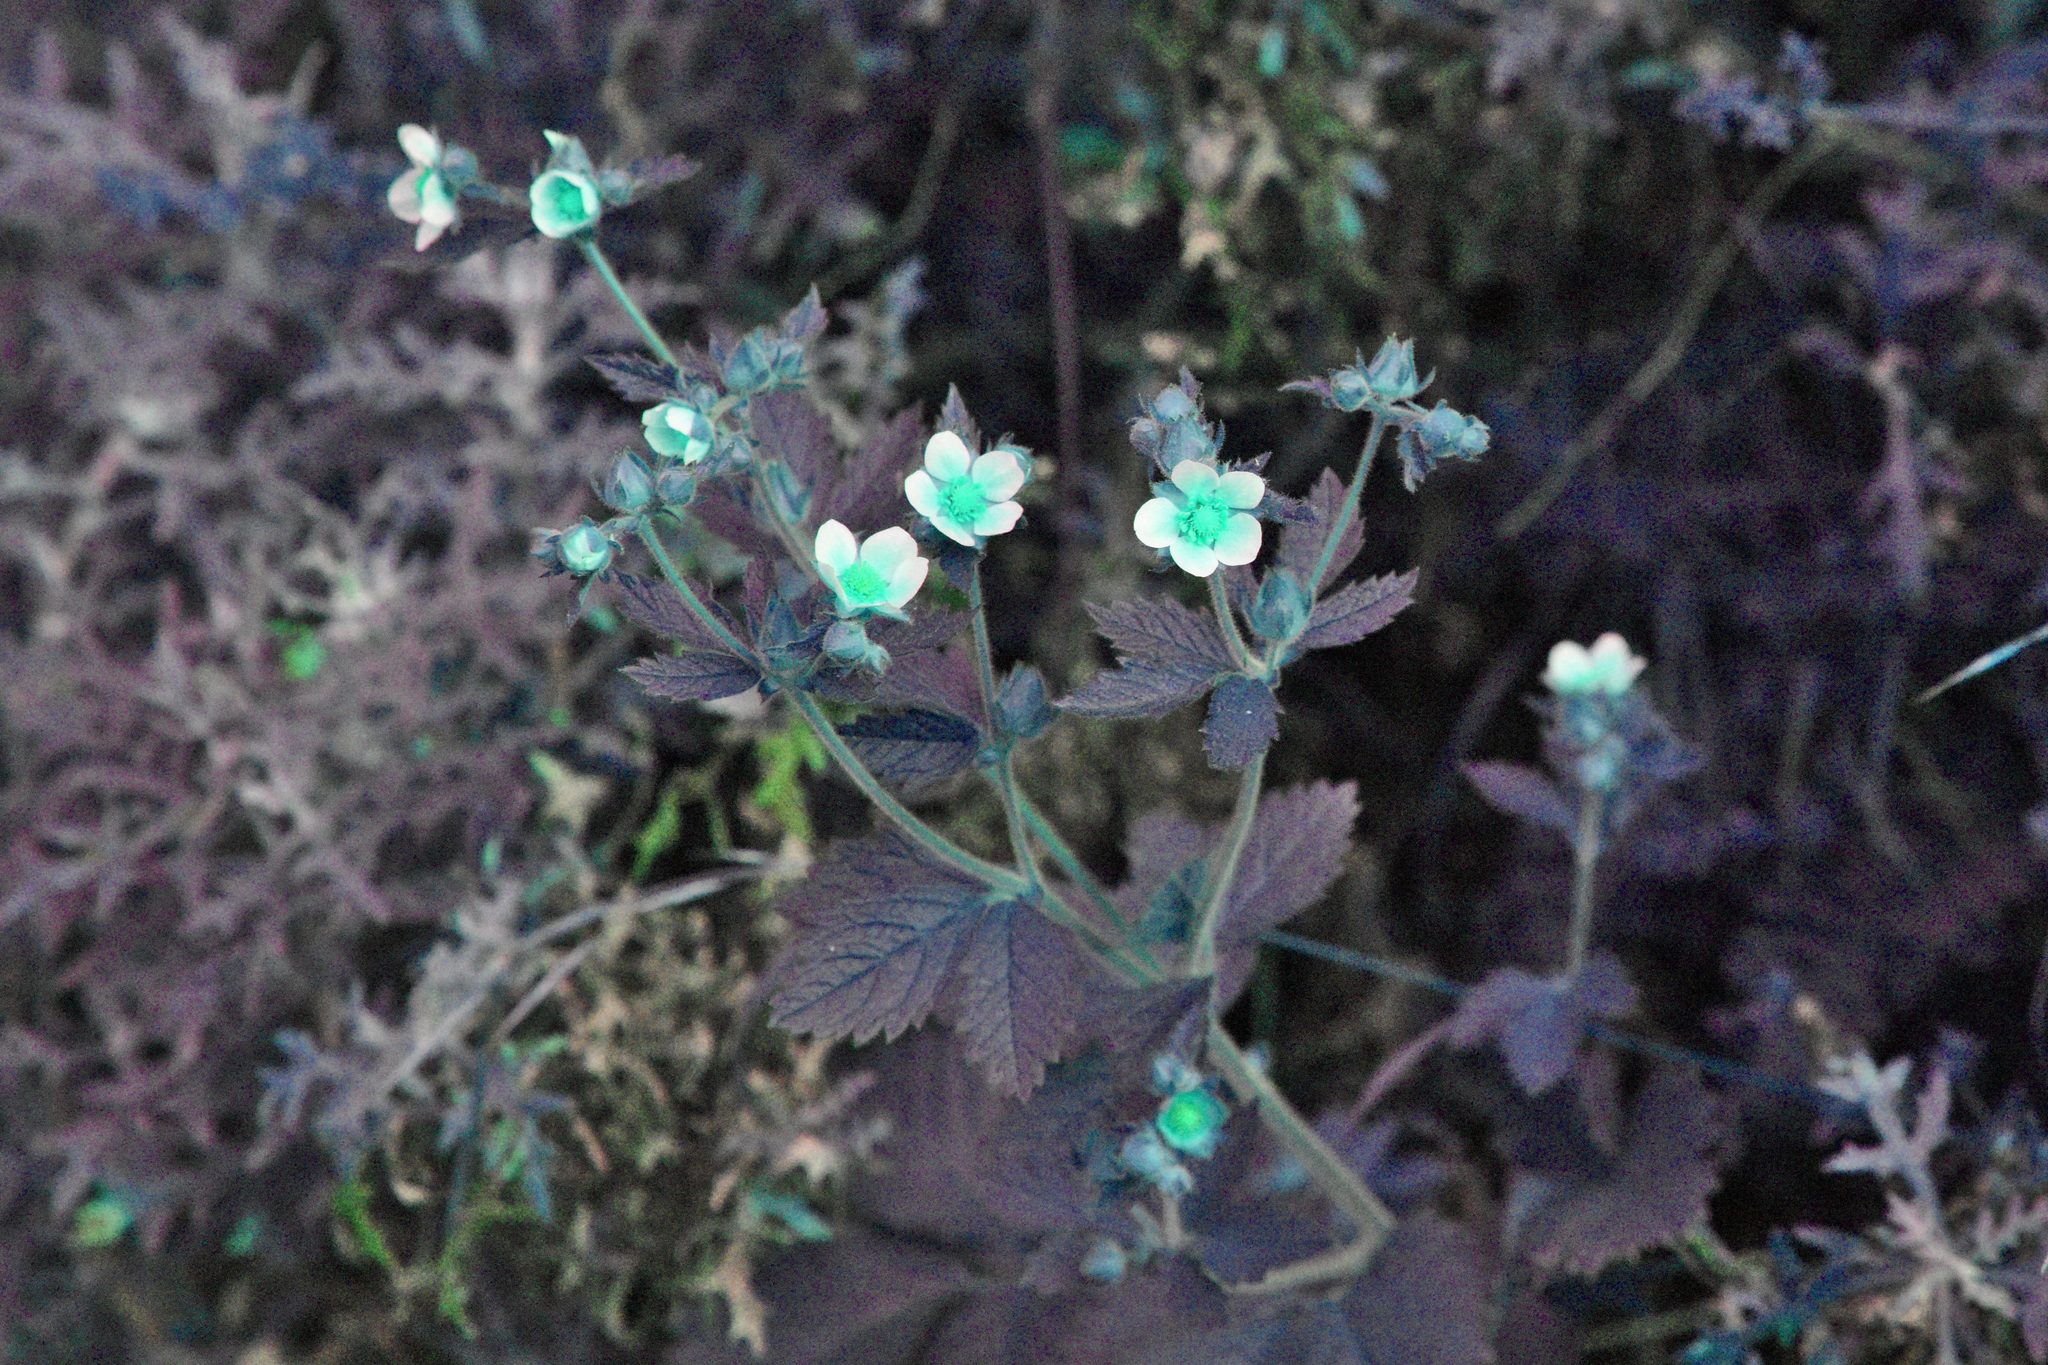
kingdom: Plantae
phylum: Tracheophyta
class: Magnoliopsida
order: Rosales
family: Rosaceae
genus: Drymocallis
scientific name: Drymocallis glandulosa
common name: Sticky cinquefoil
